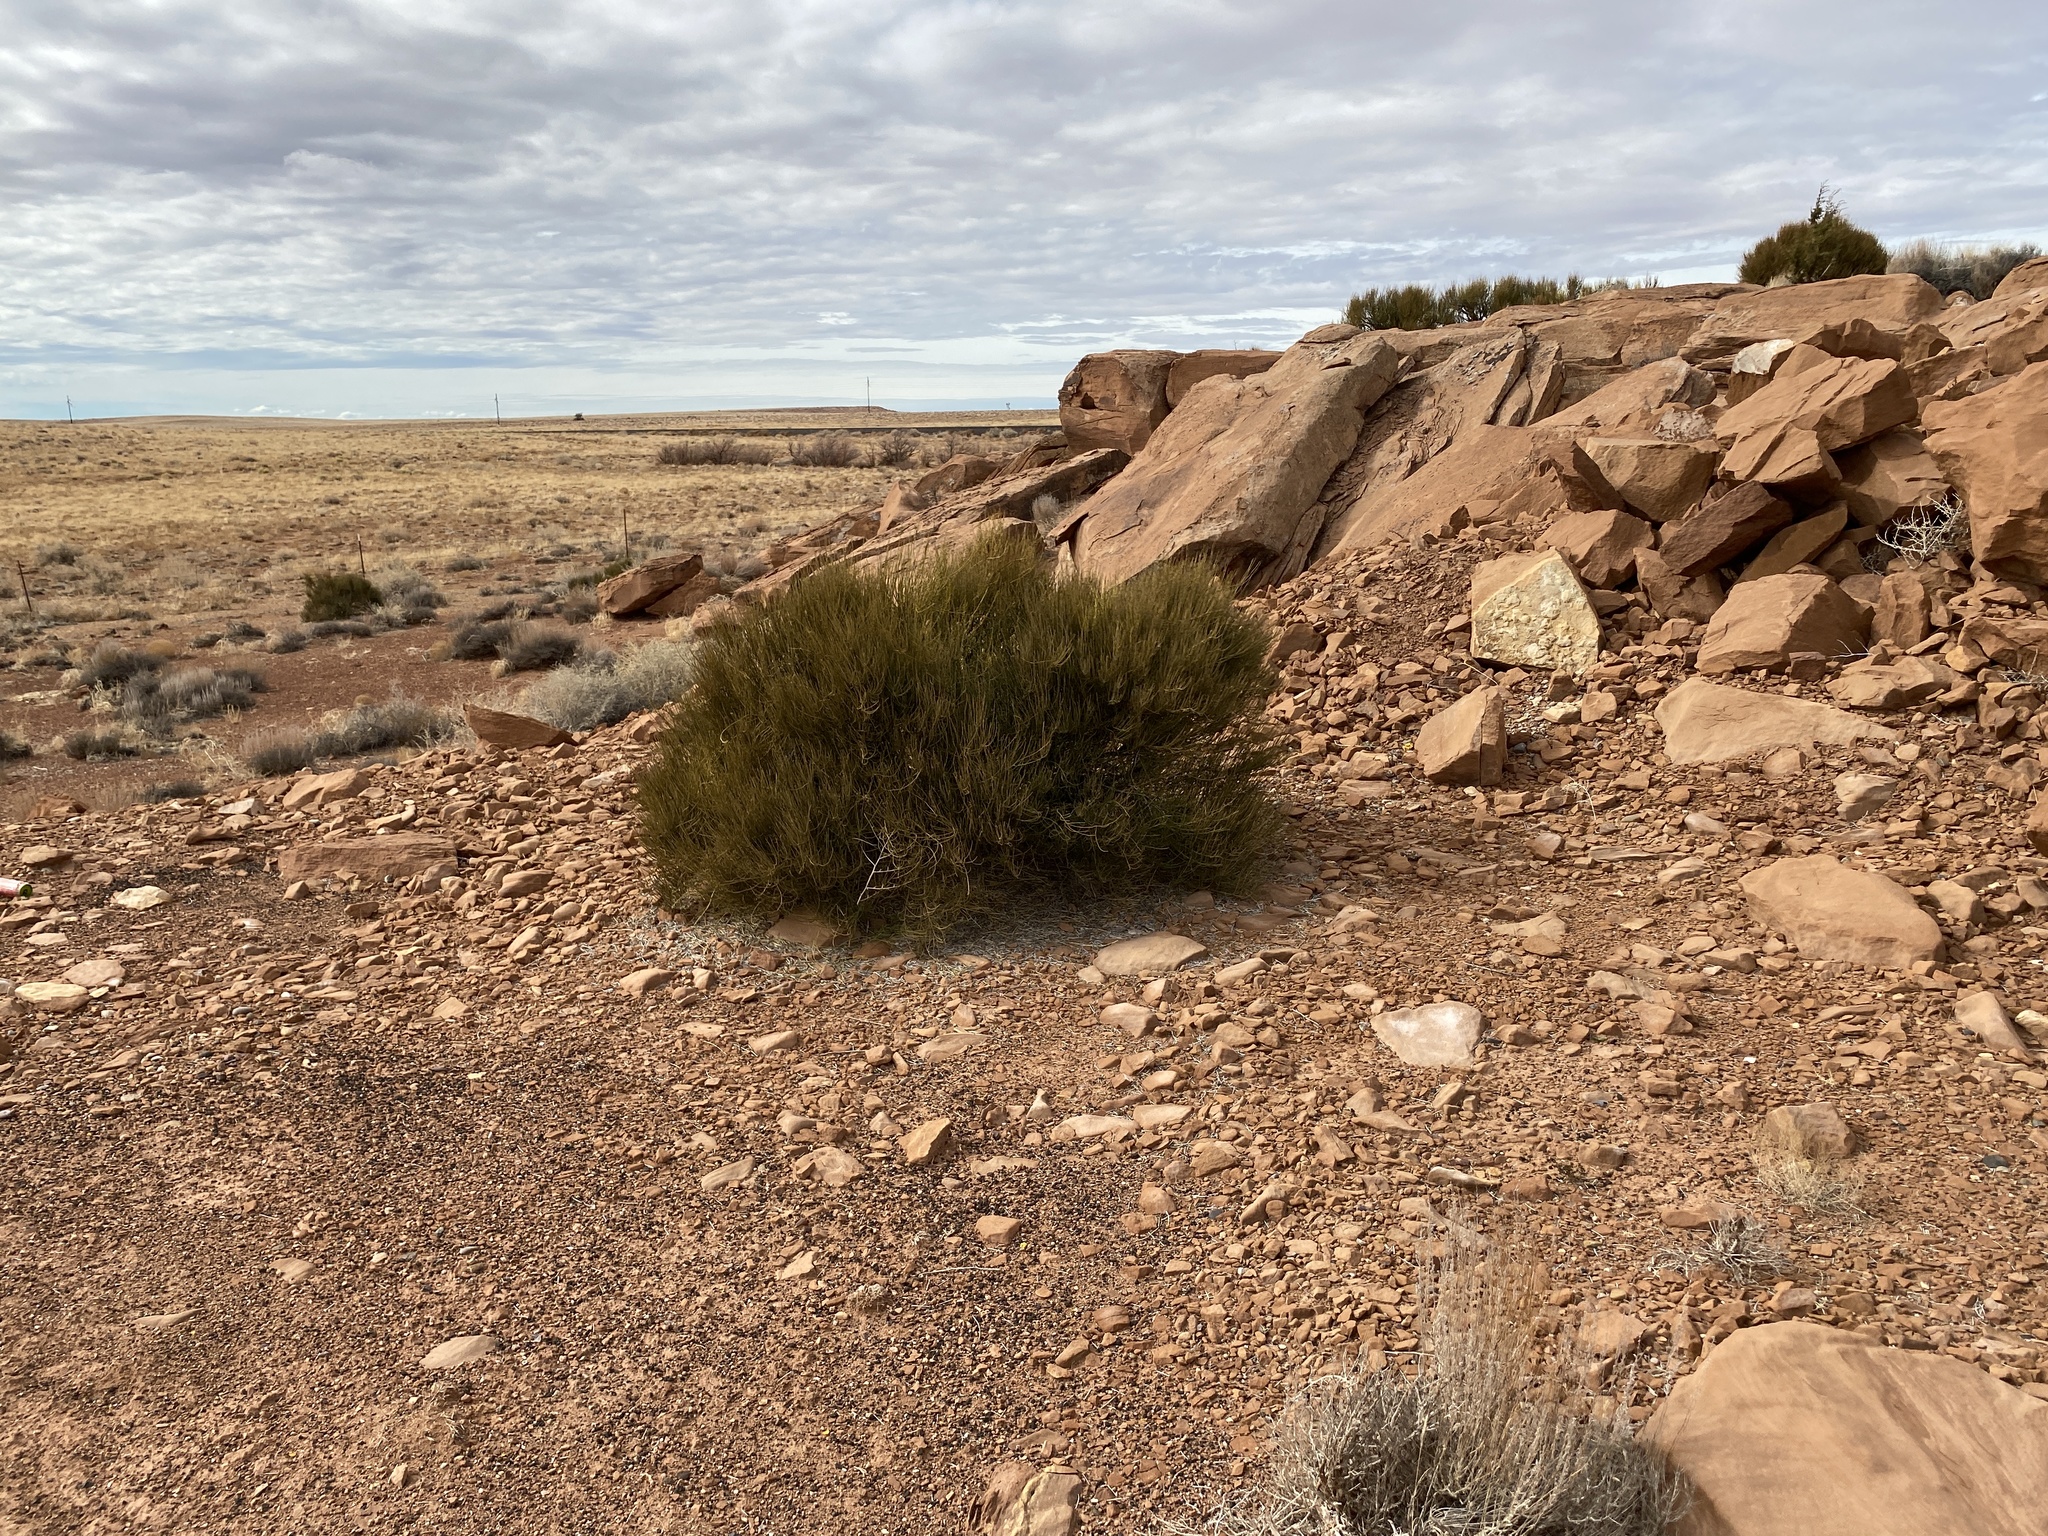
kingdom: Plantae
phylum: Tracheophyta
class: Gnetopsida
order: Ephedrales
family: Ephedraceae
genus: Ephedra
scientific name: Ephedra viridis
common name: Green ephedra
